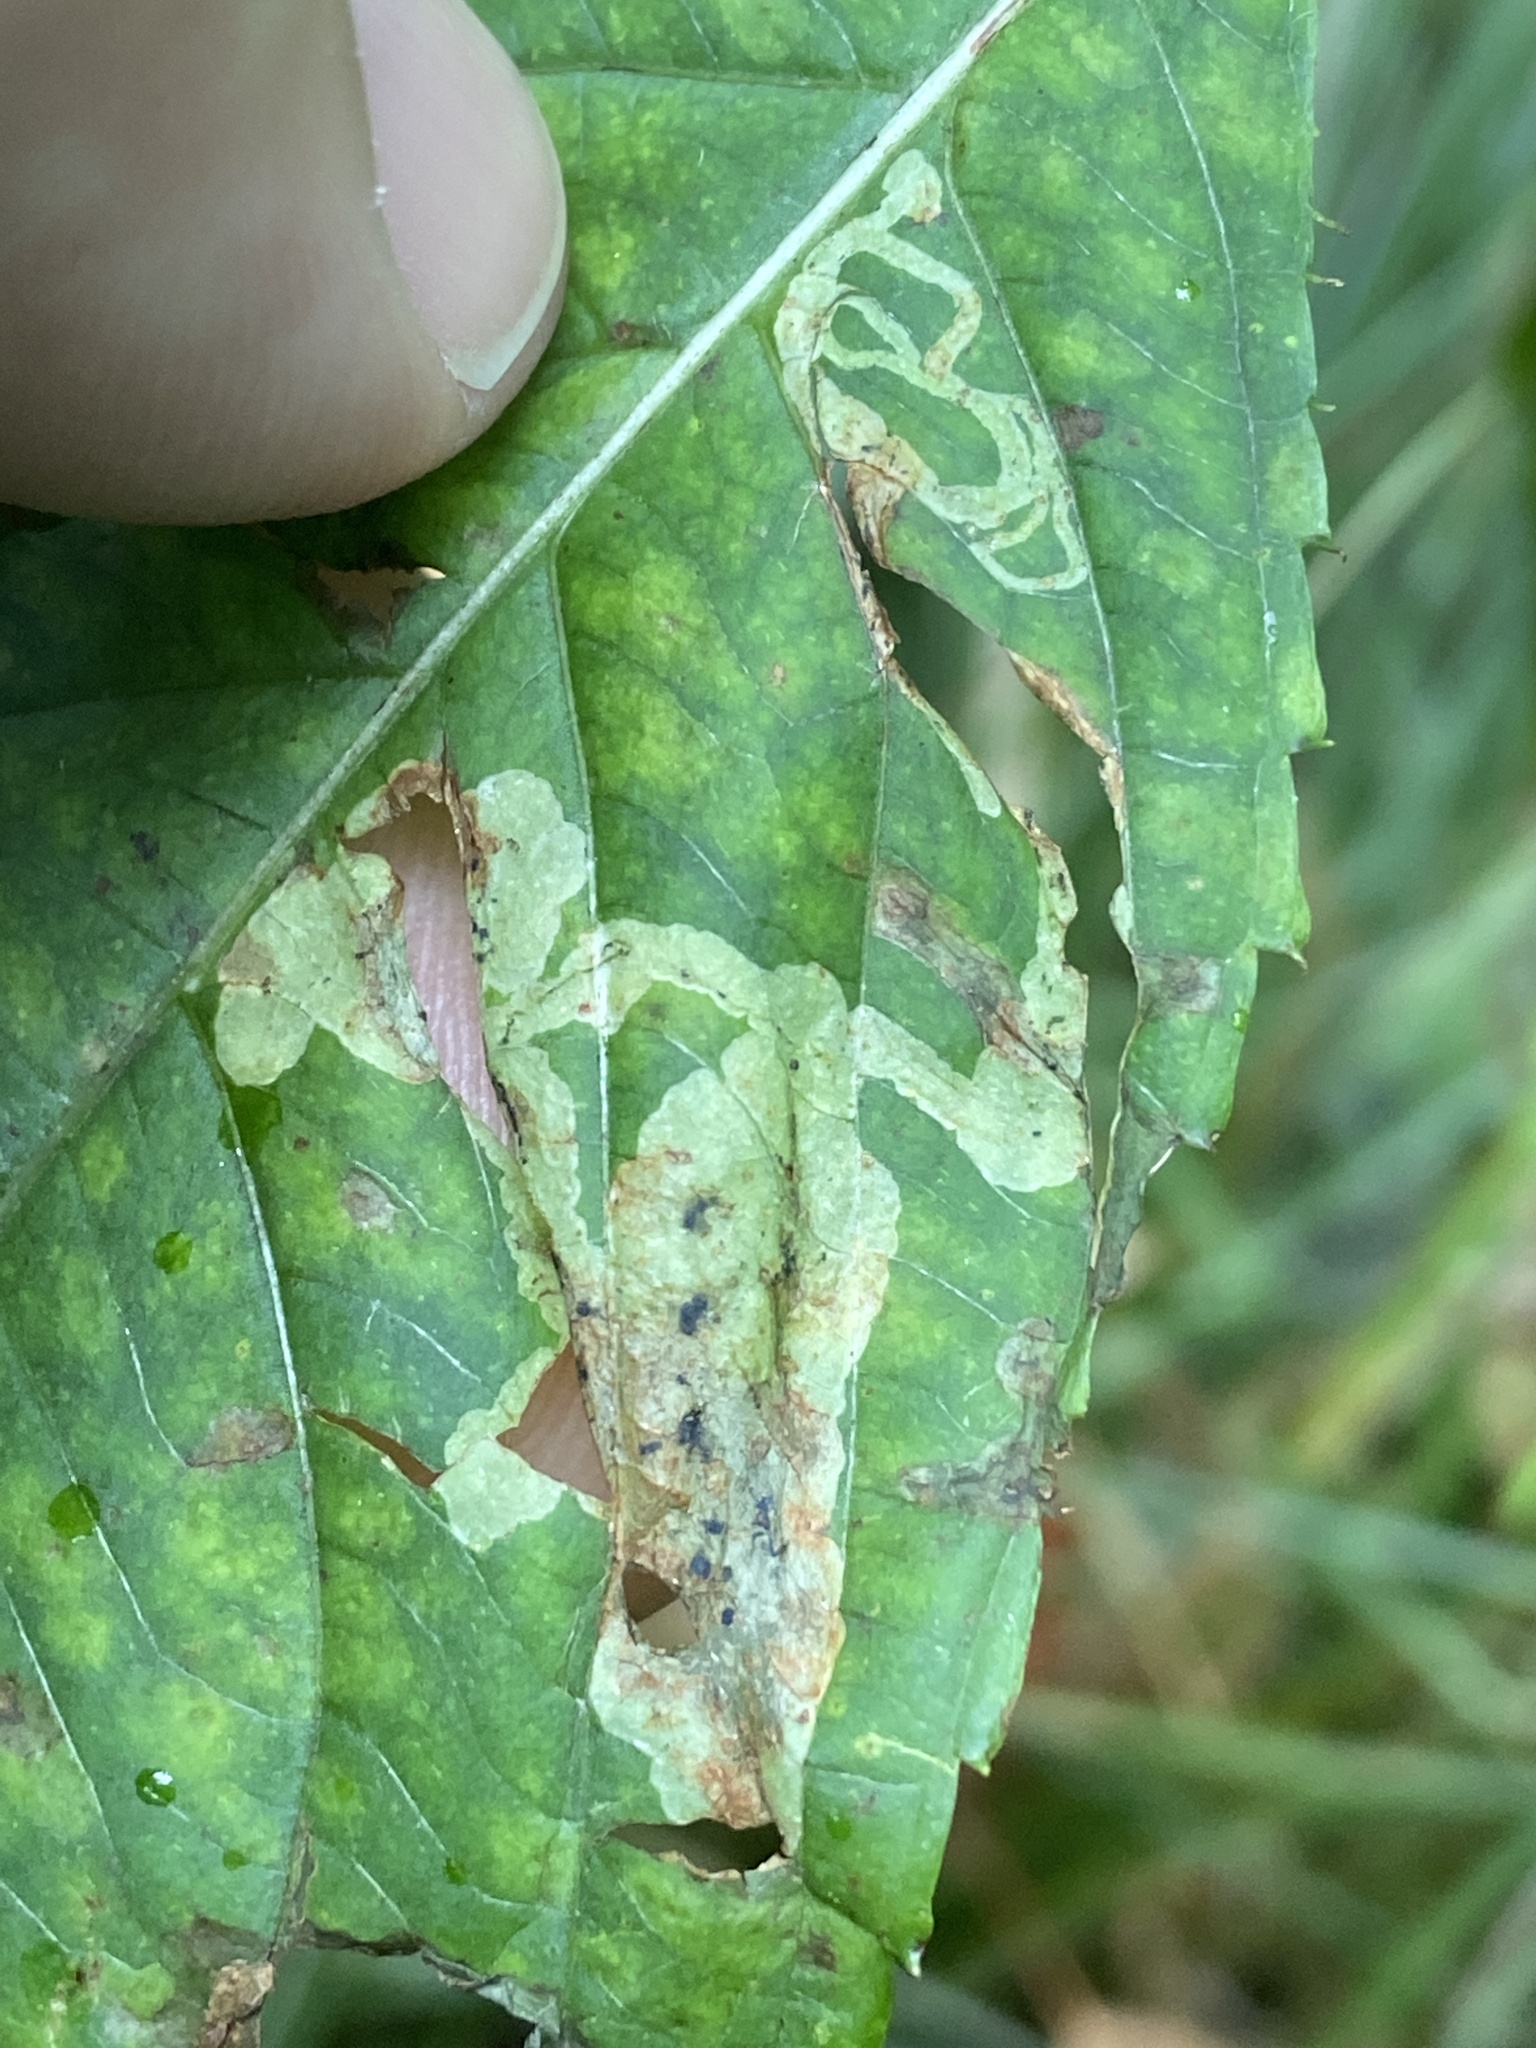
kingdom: Animalia
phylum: Arthropoda
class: Insecta
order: Diptera
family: Agromyzidae
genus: Phytoliriomyza
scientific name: Phytoliriomyza melampyga
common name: Jewelweed leaf-miner fly
